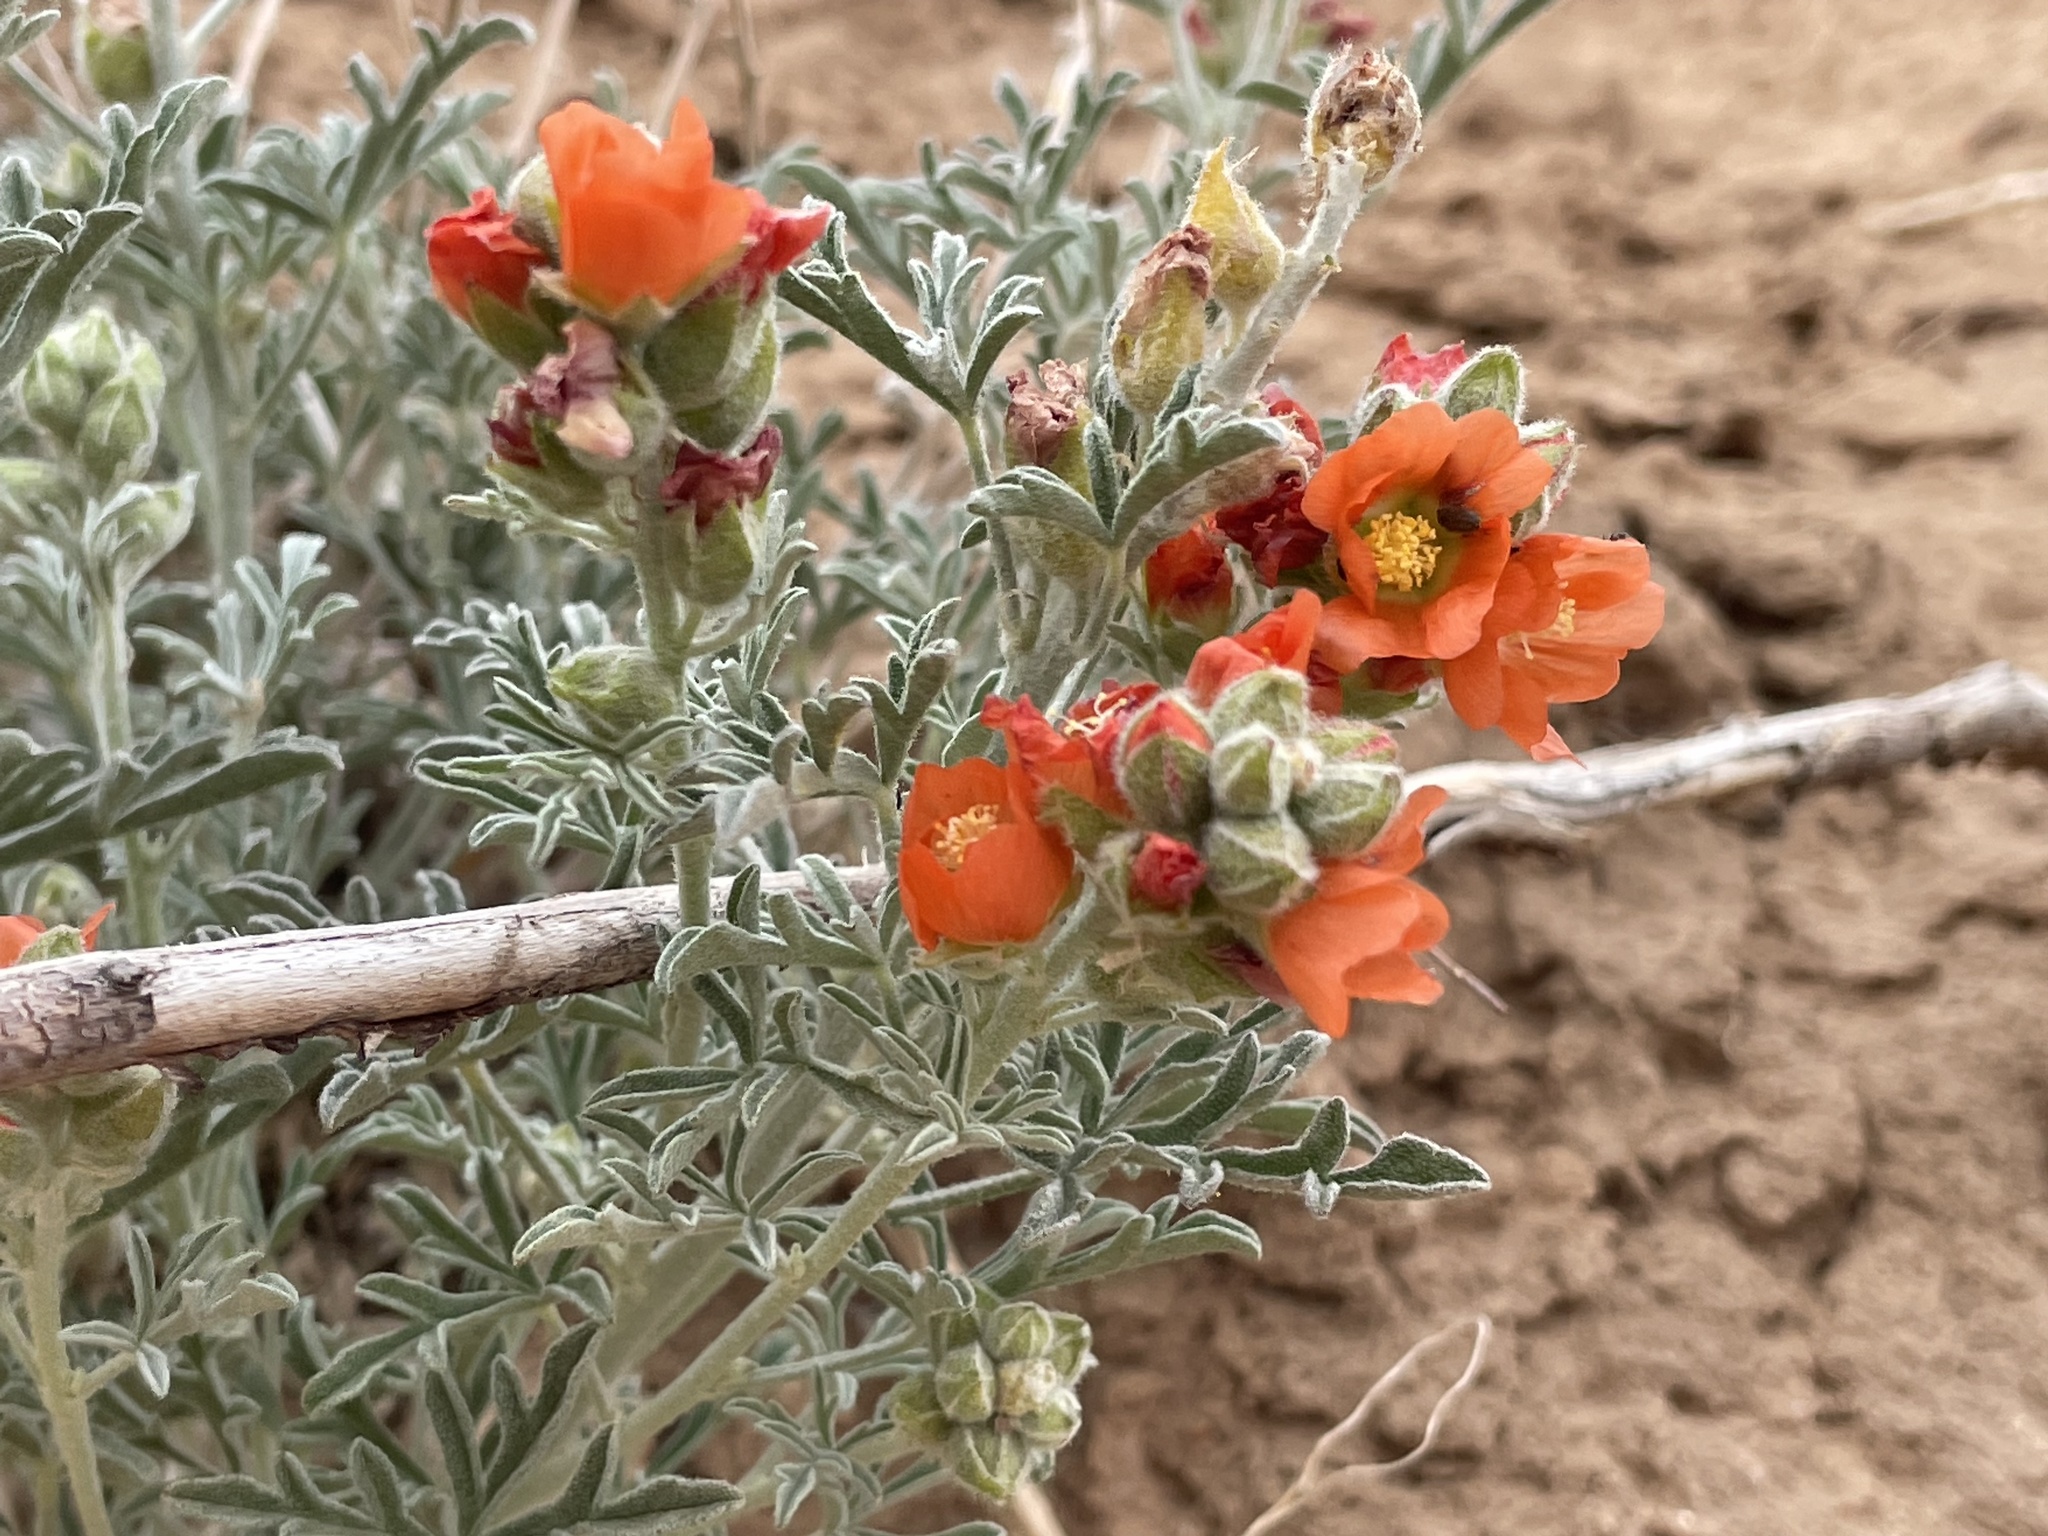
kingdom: Plantae
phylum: Tracheophyta
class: Magnoliopsida
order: Malvales
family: Malvaceae
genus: Sphaeralcea
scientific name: Sphaeralcea coccinea
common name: Moss-rose
